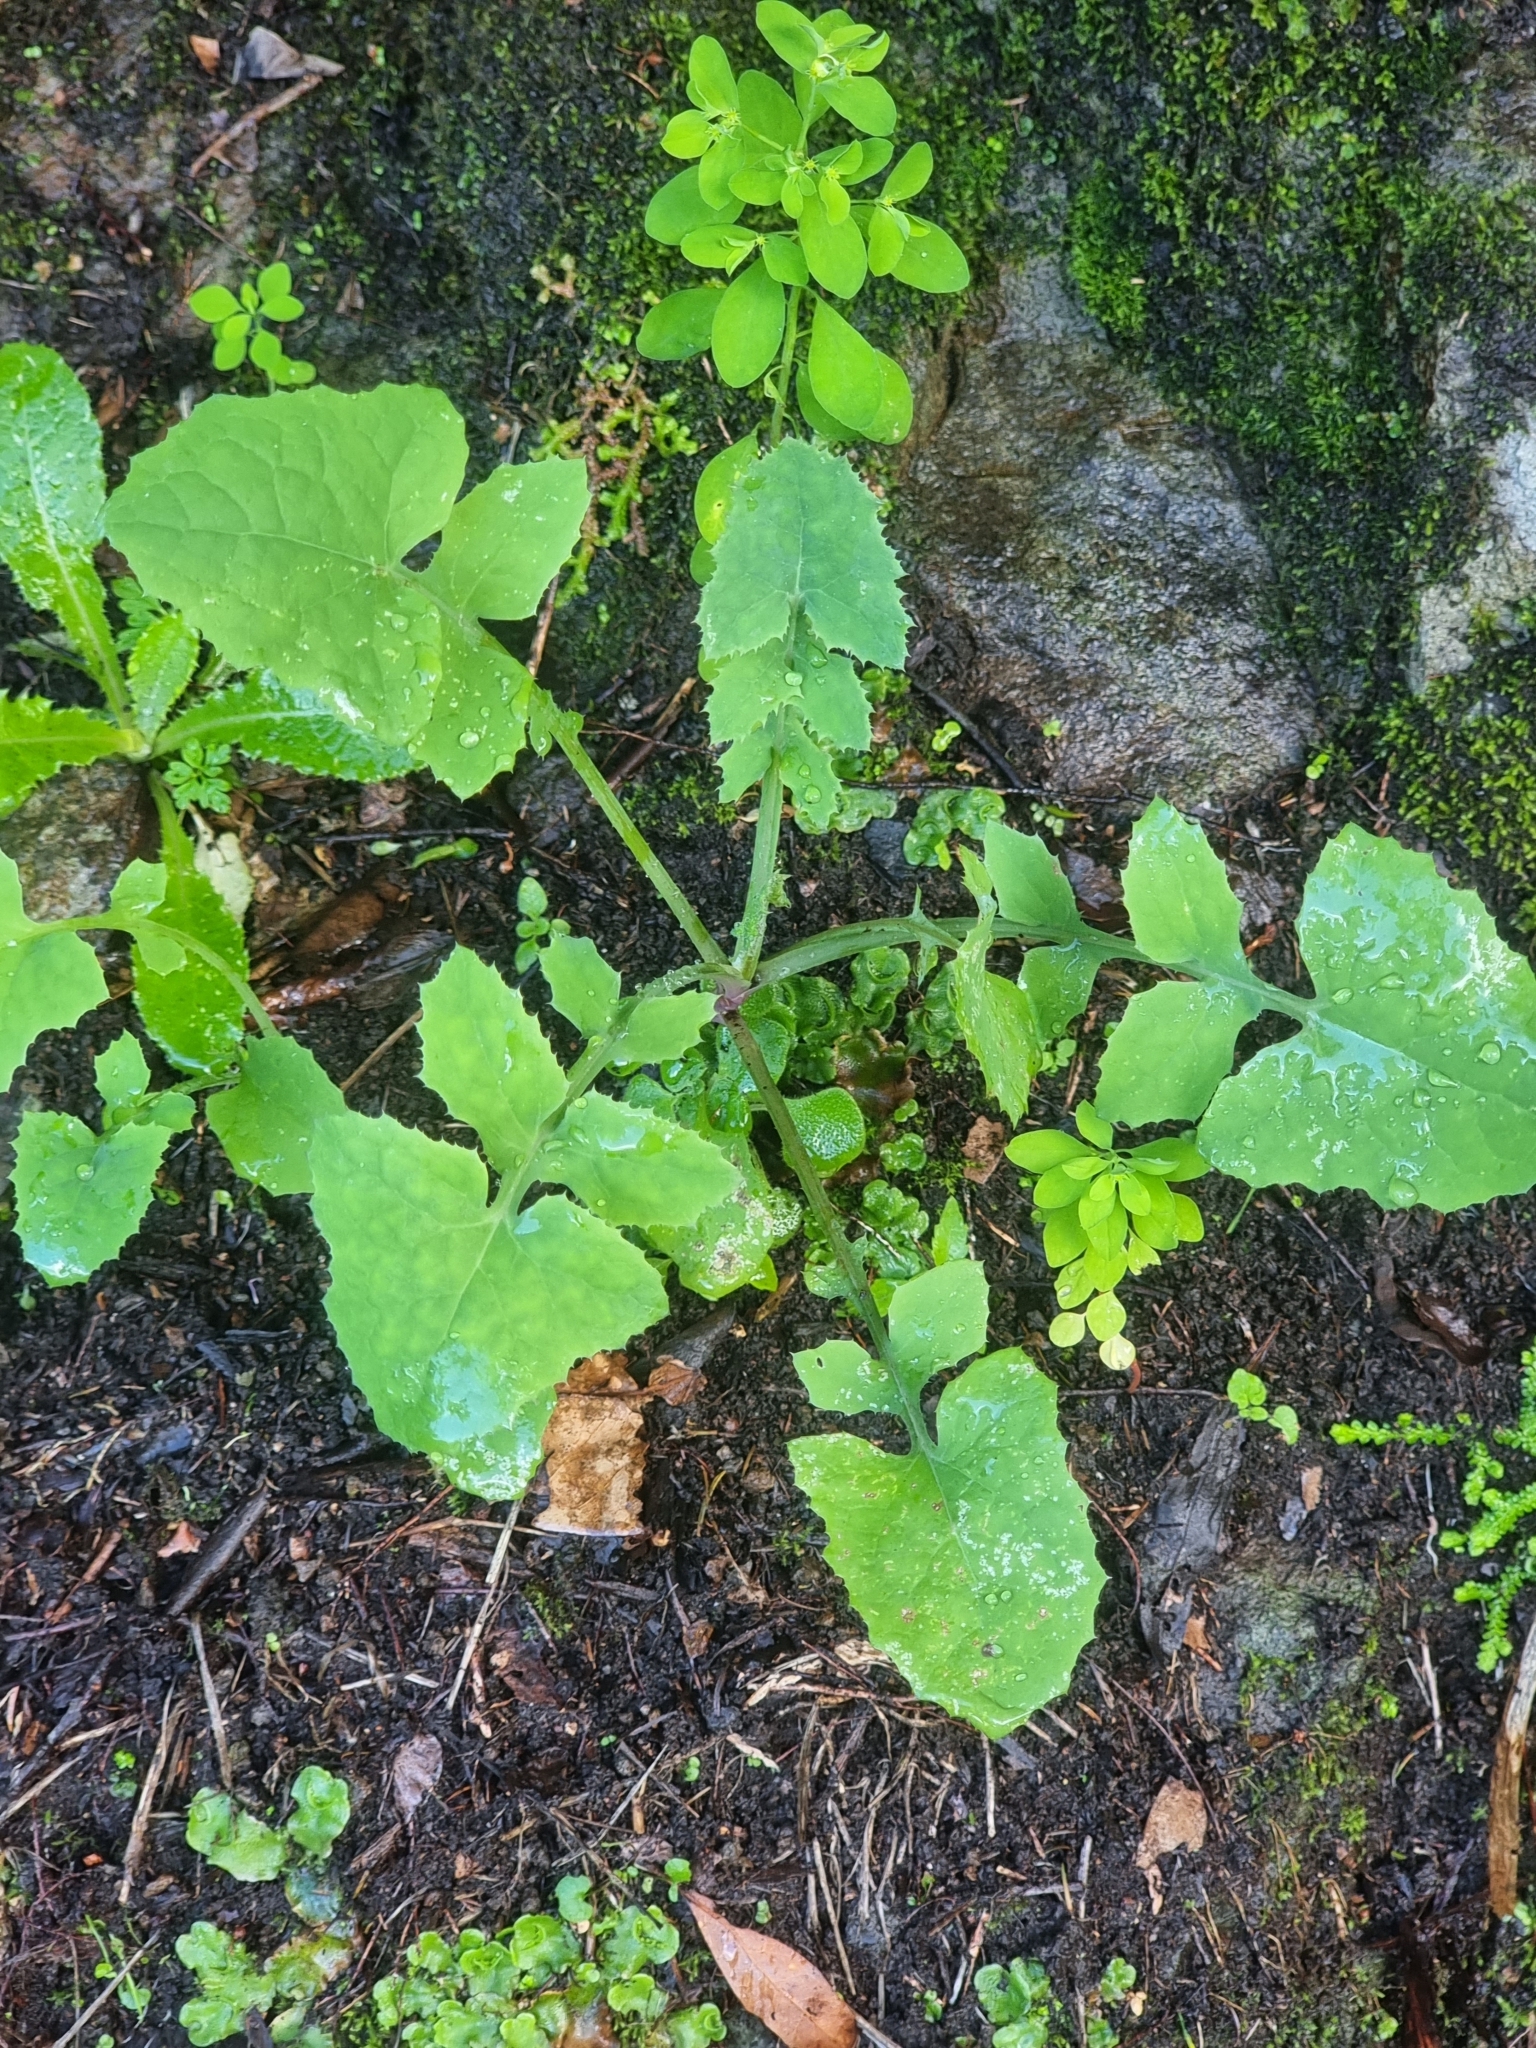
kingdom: Plantae
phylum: Tracheophyta
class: Magnoliopsida
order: Asterales
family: Asteraceae
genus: Sonchus
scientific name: Sonchus oleraceus
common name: Common sowthistle
